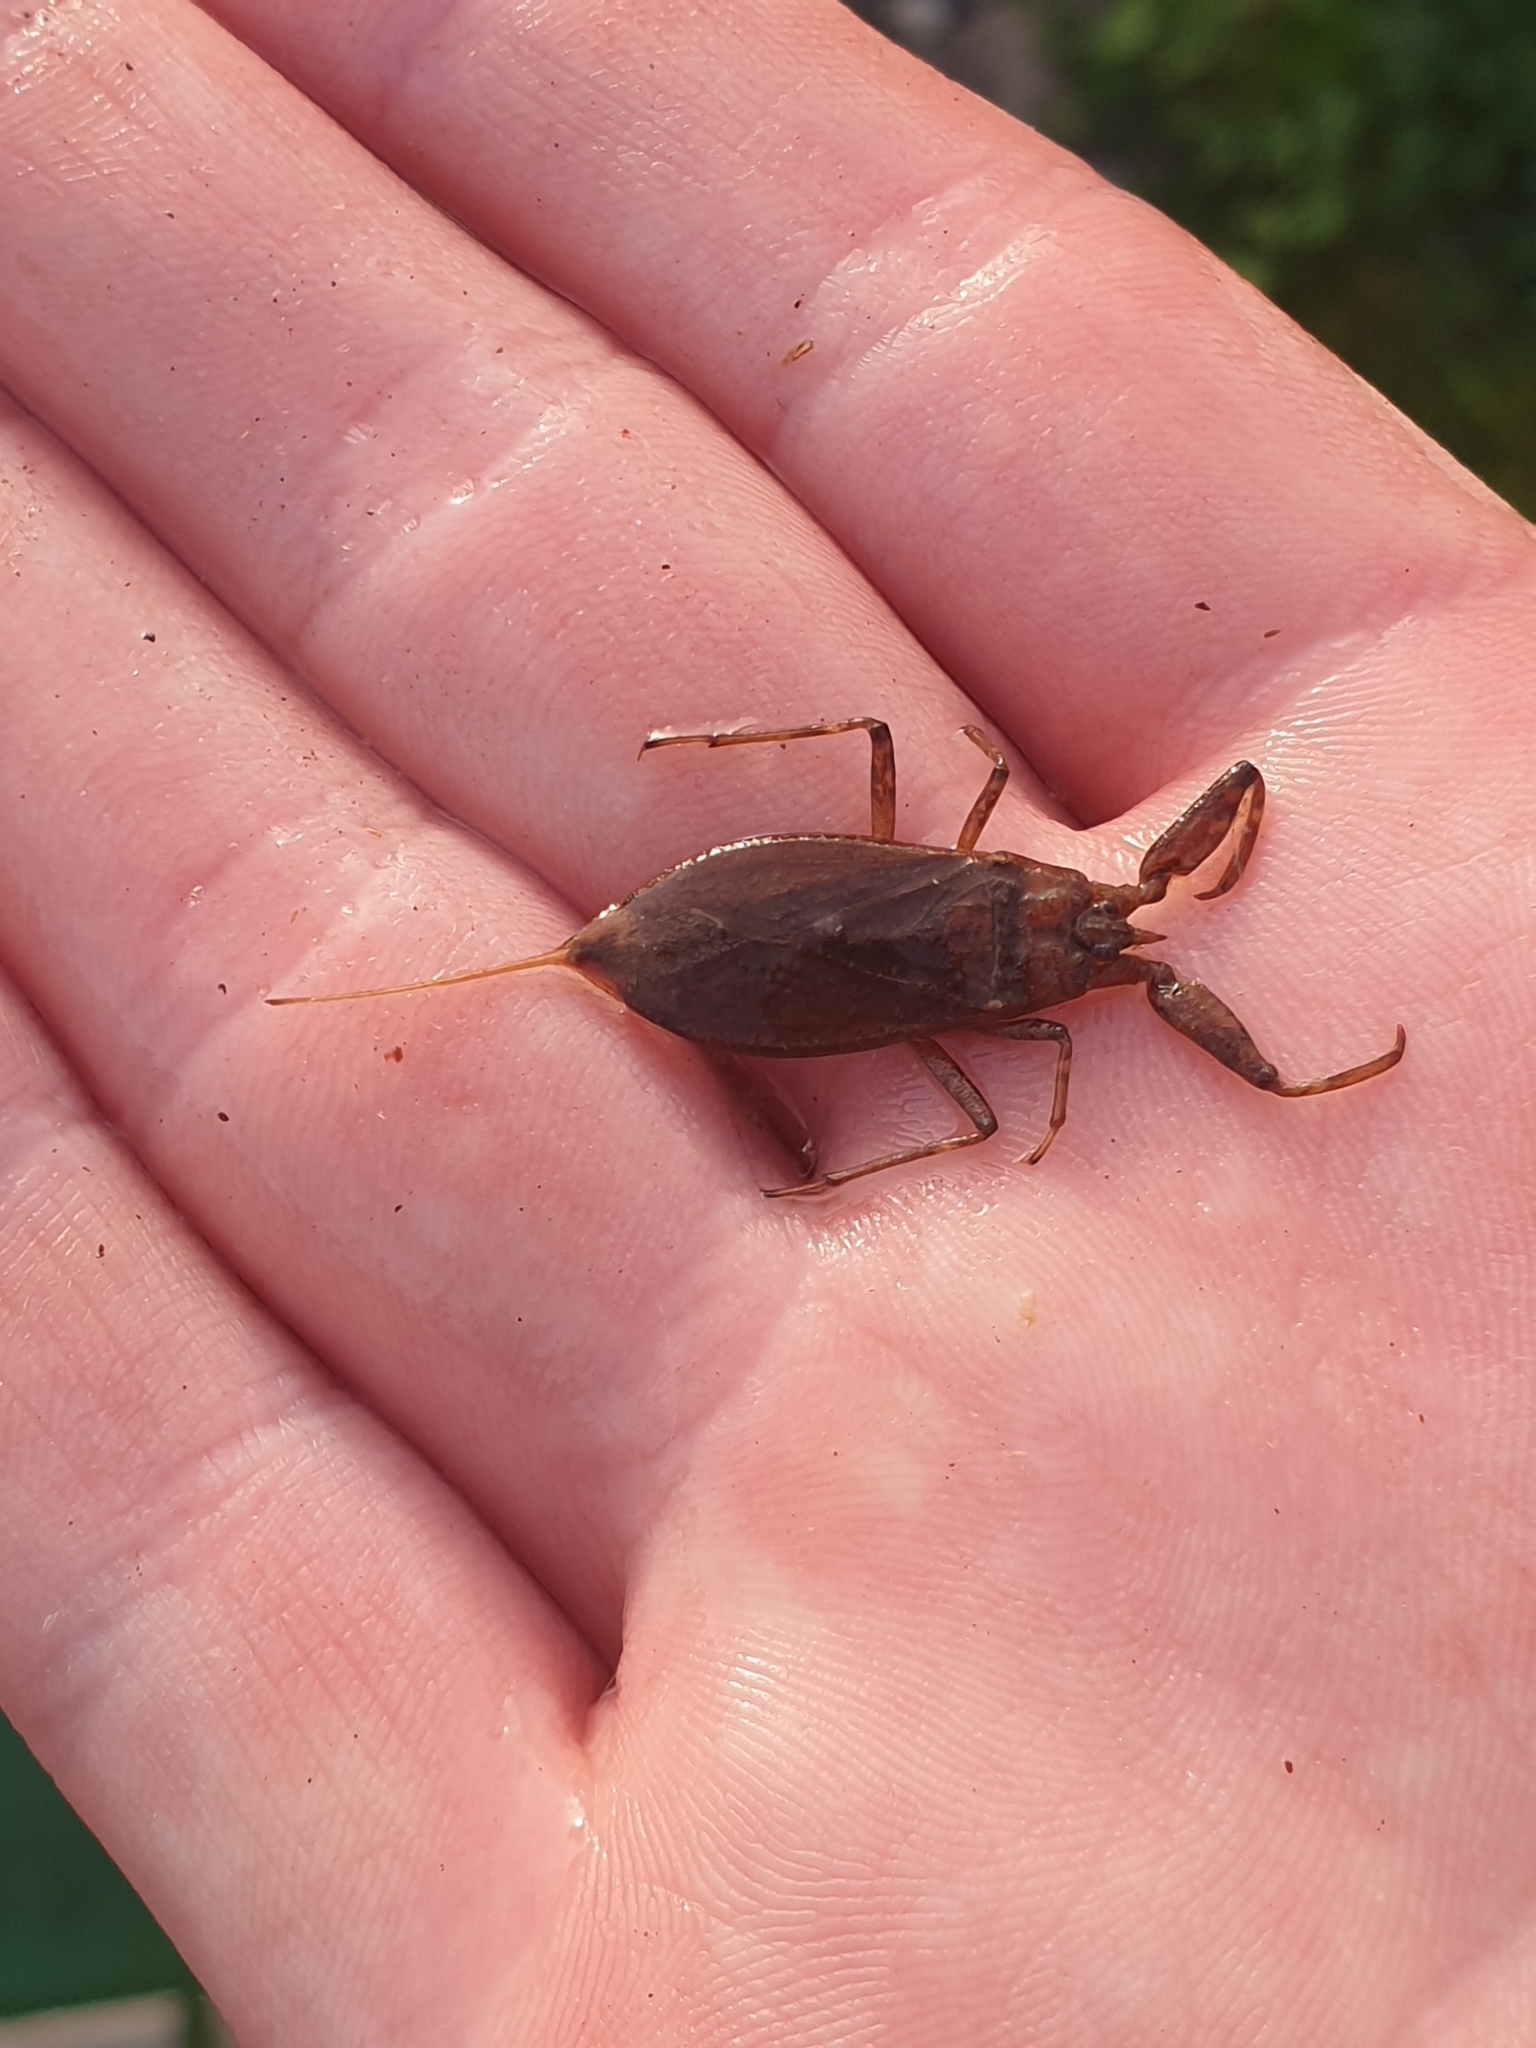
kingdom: Animalia
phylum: Arthropoda
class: Insecta
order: Hemiptera
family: Nepidae
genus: Nepa
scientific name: Nepa cinerea
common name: Water scorpion
